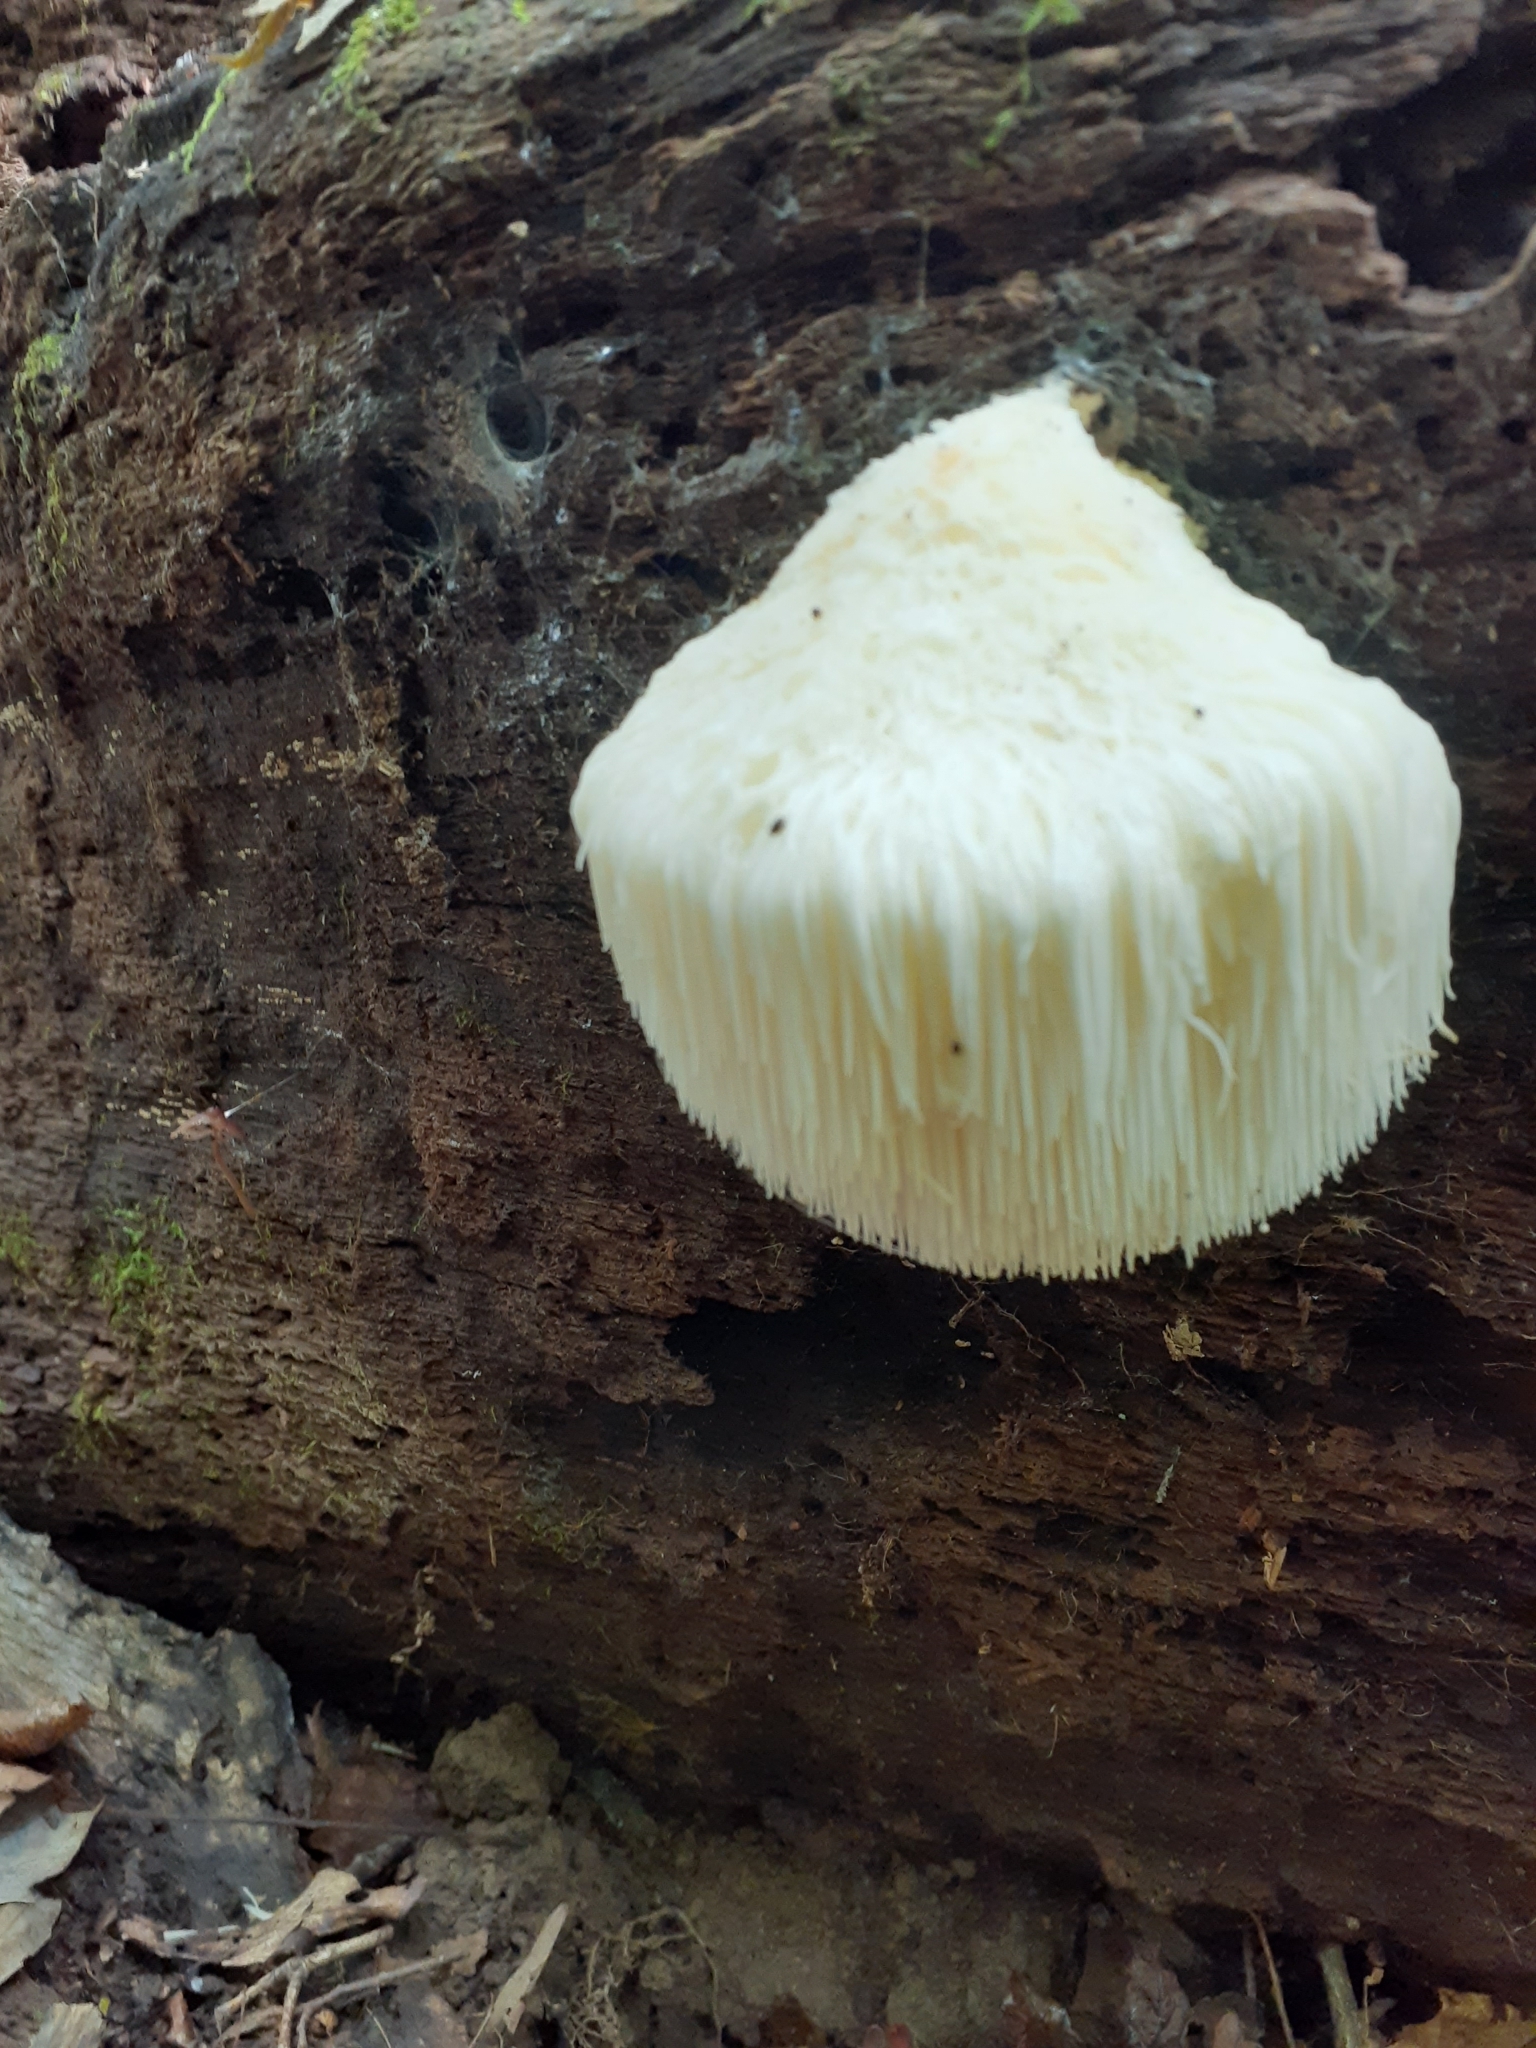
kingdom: Fungi
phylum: Basidiomycota
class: Agaricomycetes
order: Russulales
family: Hericiaceae
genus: Hericium
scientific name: Hericium erinaceus
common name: Bearded tooth
